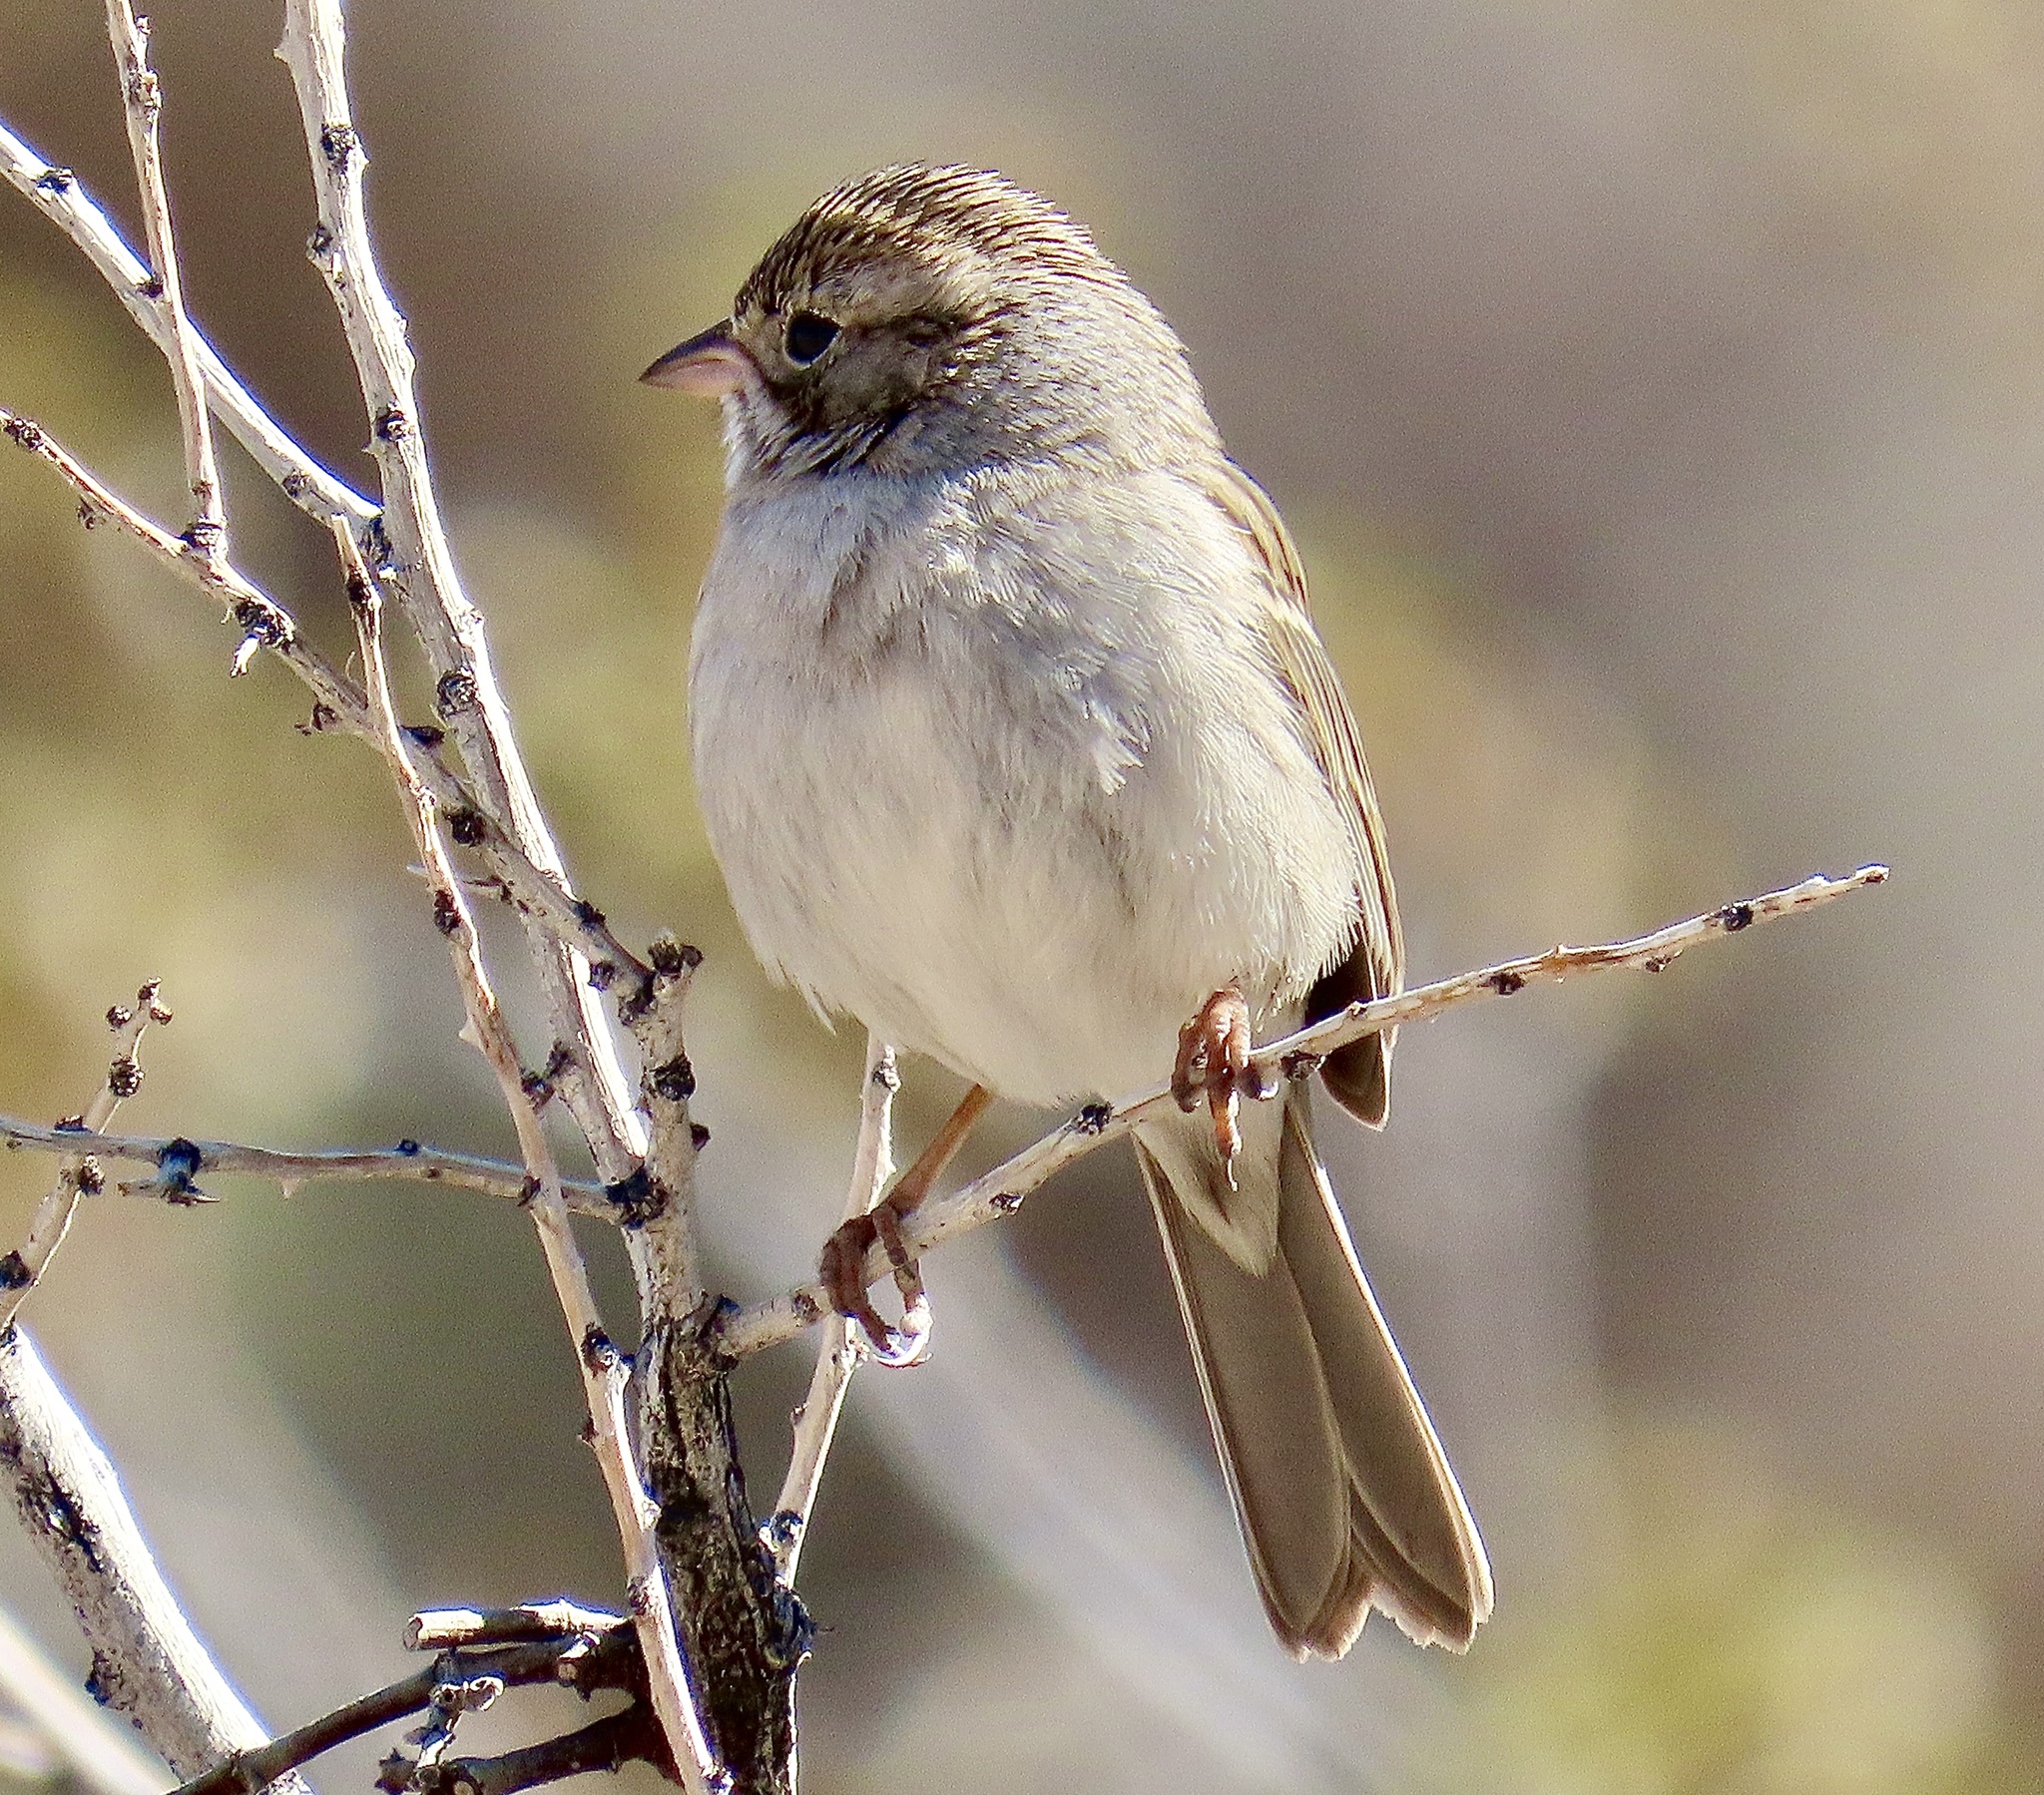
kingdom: Animalia
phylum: Chordata
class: Aves
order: Passeriformes
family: Passerellidae
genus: Spizella
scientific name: Spizella breweri
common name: Brewer's sparrow
